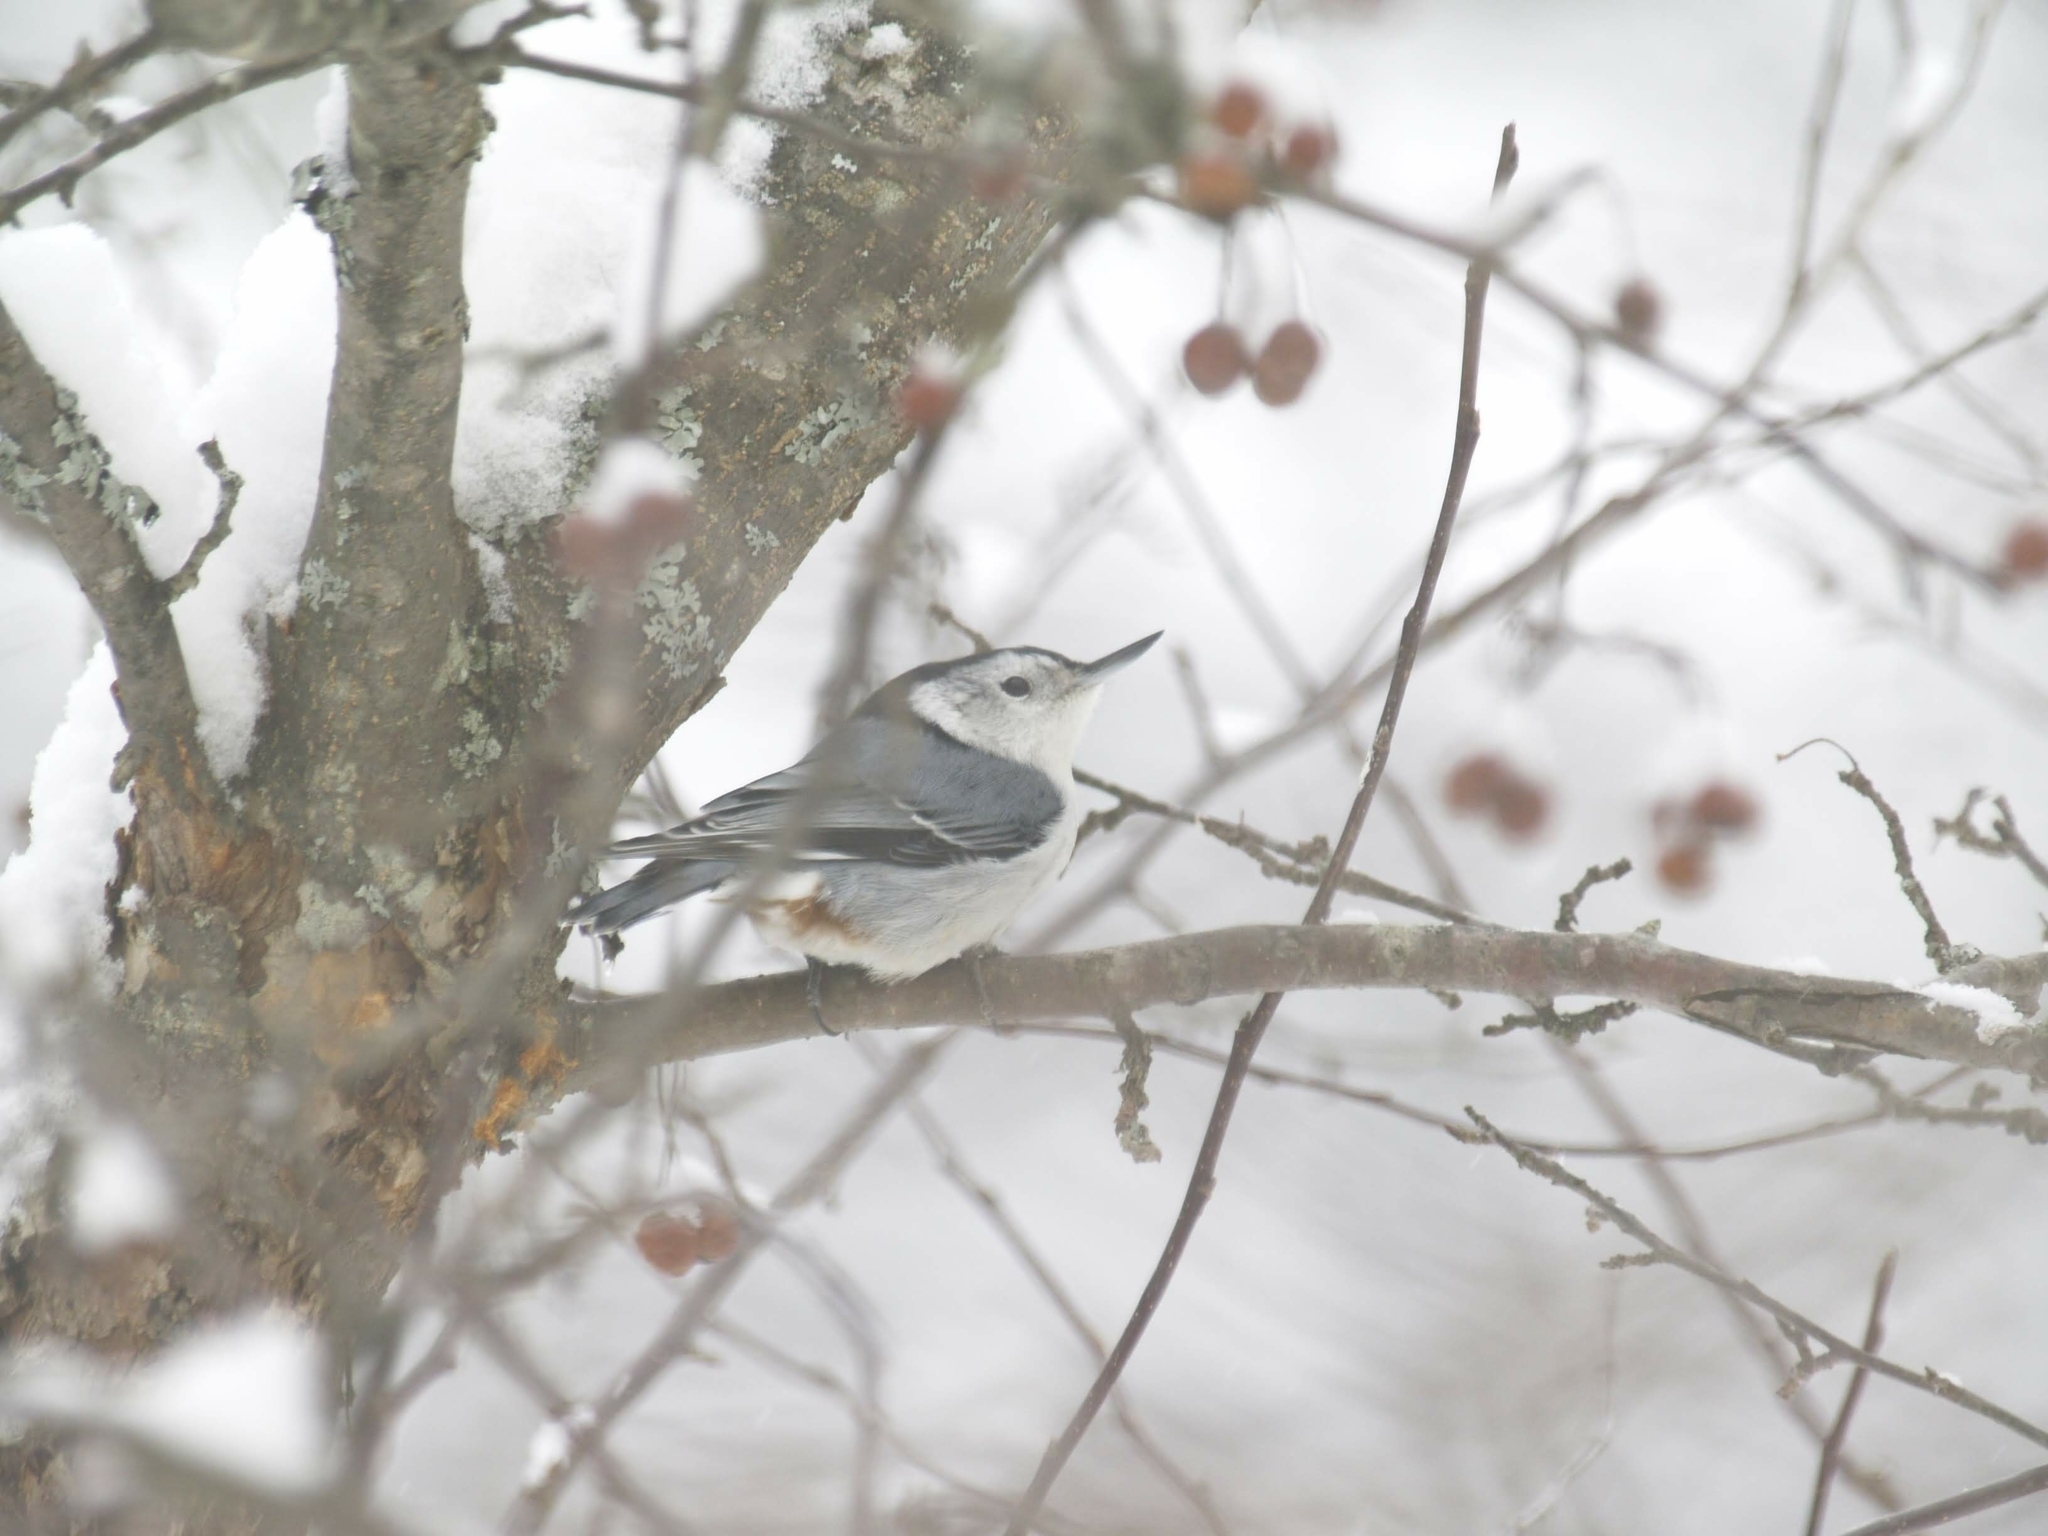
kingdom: Animalia
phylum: Chordata
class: Aves
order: Passeriformes
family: Sittidae
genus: Sitta
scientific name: Sitta carolinensis
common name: White-breasted nuthatch
